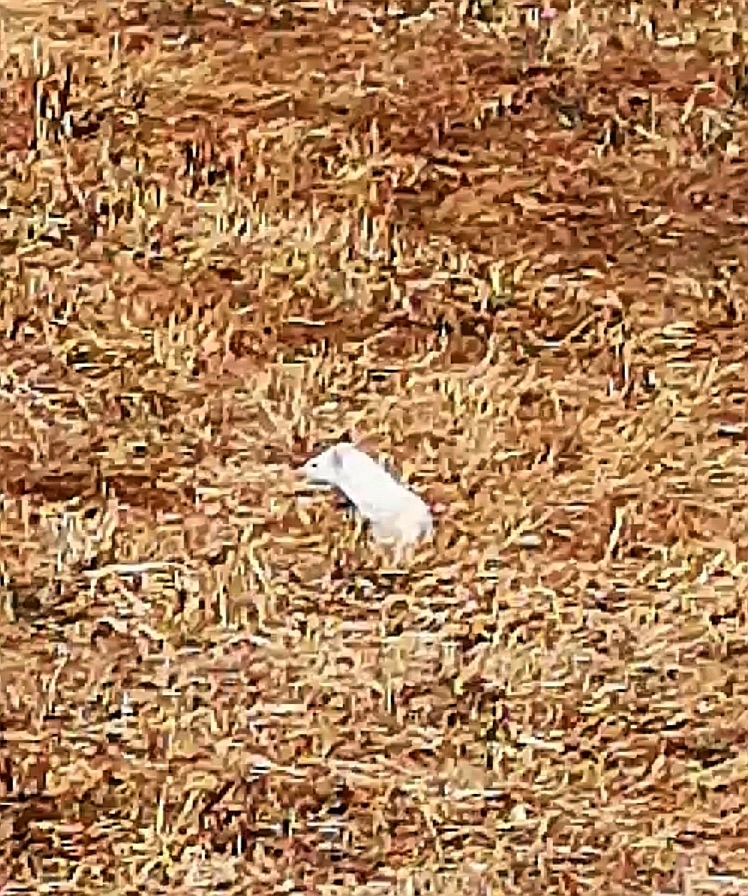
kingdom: Animalia
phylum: Chordata
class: Mammalia
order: Carnivora
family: Mustelidae
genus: Mustela
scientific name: Mustela erminea
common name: Stoat
